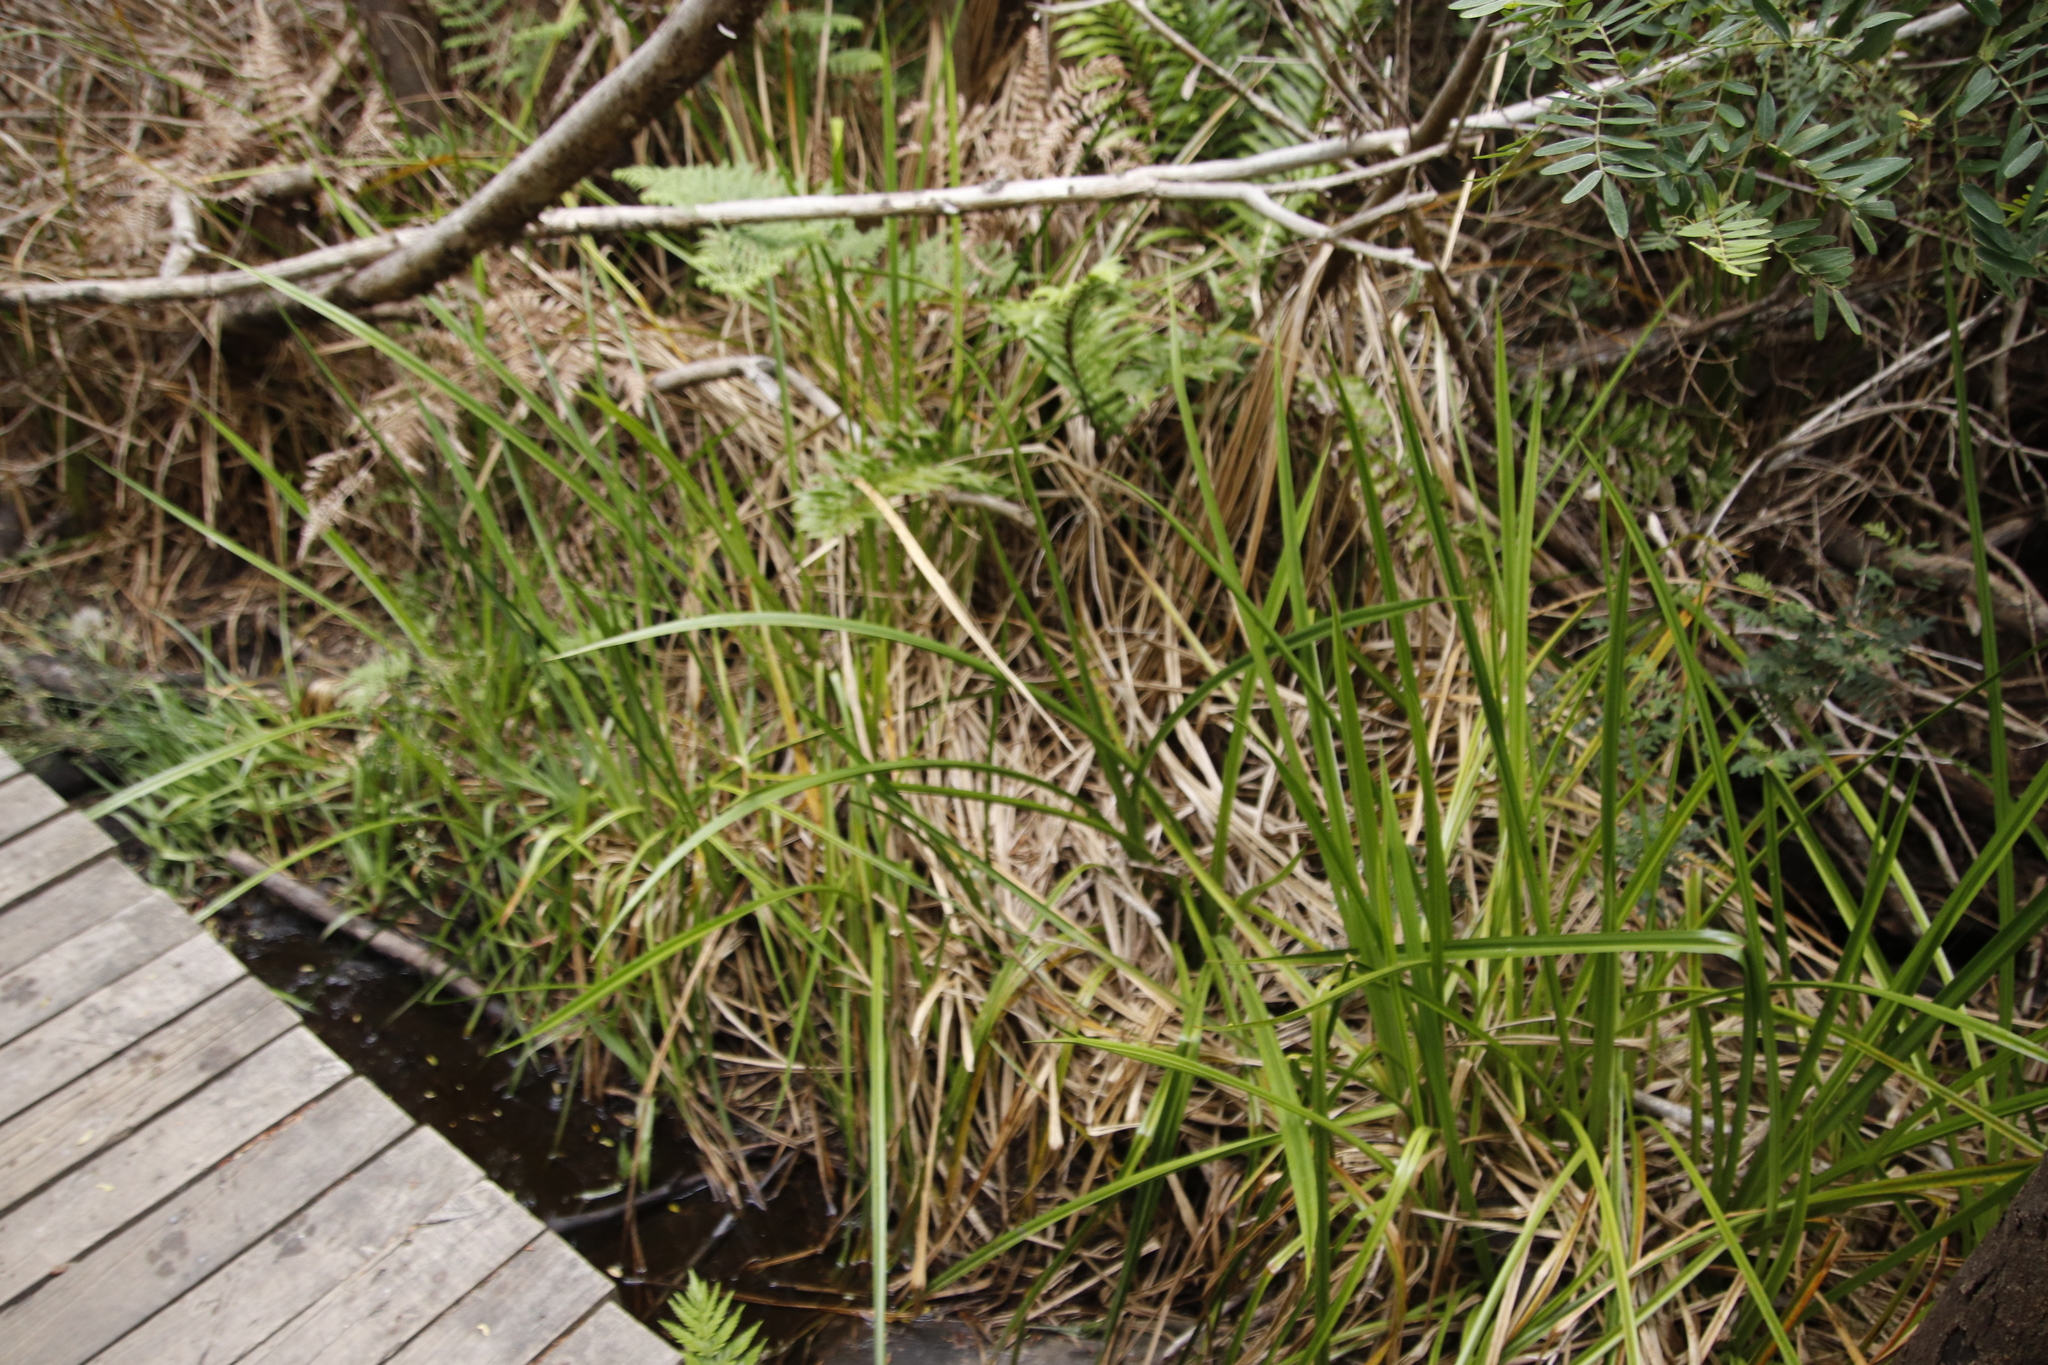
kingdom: Plantae
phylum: Tracheophyta
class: Liliopsida
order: Poales
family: Cyperaceae
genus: Carpha
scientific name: Carpha glomerata
